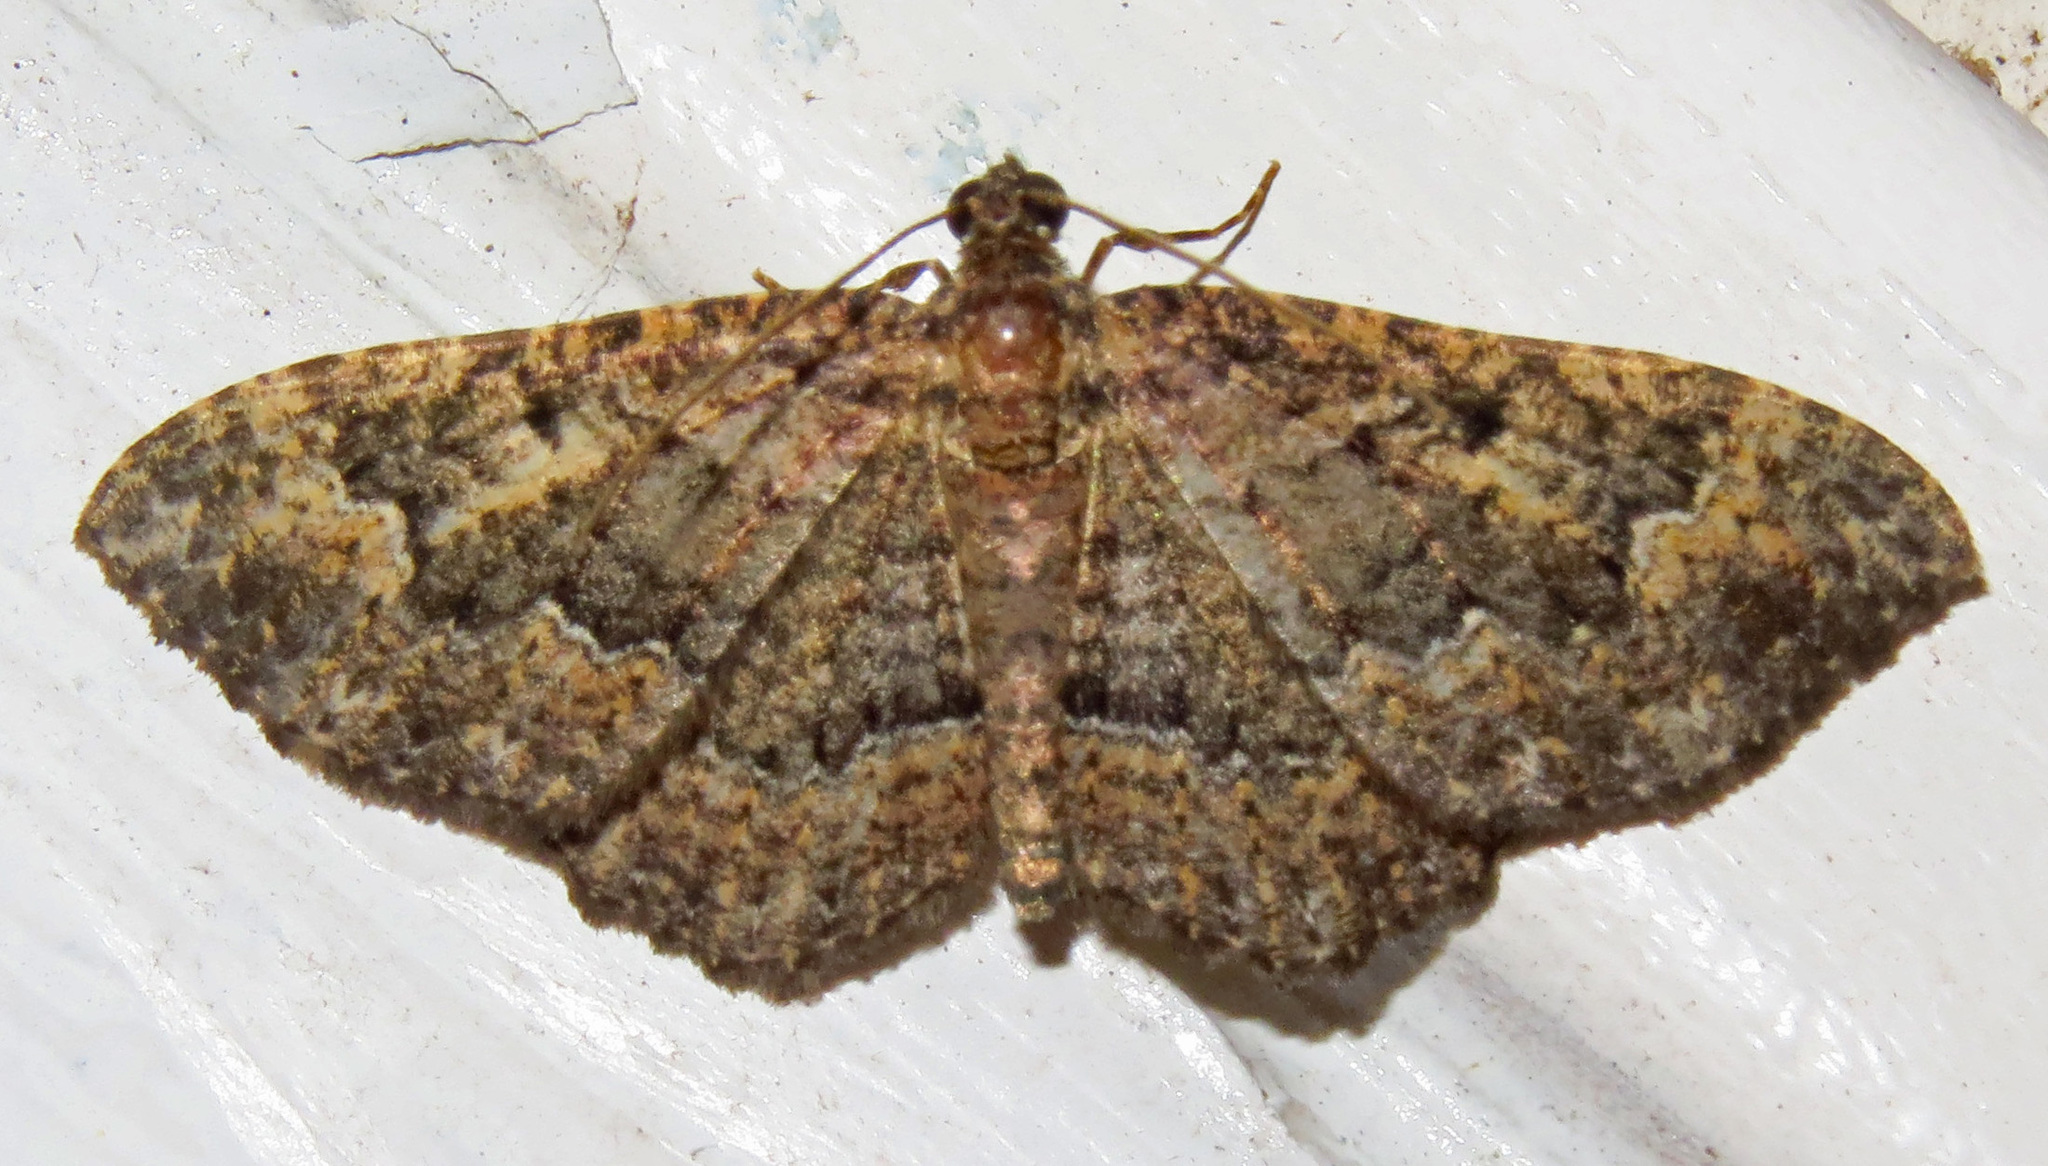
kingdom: Animalia
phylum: Arthropoda
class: Insecta
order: Lepidoptera
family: Geometridae
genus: Disclisioprocta
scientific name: Disclisioprocta stellata
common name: Somber carpet
